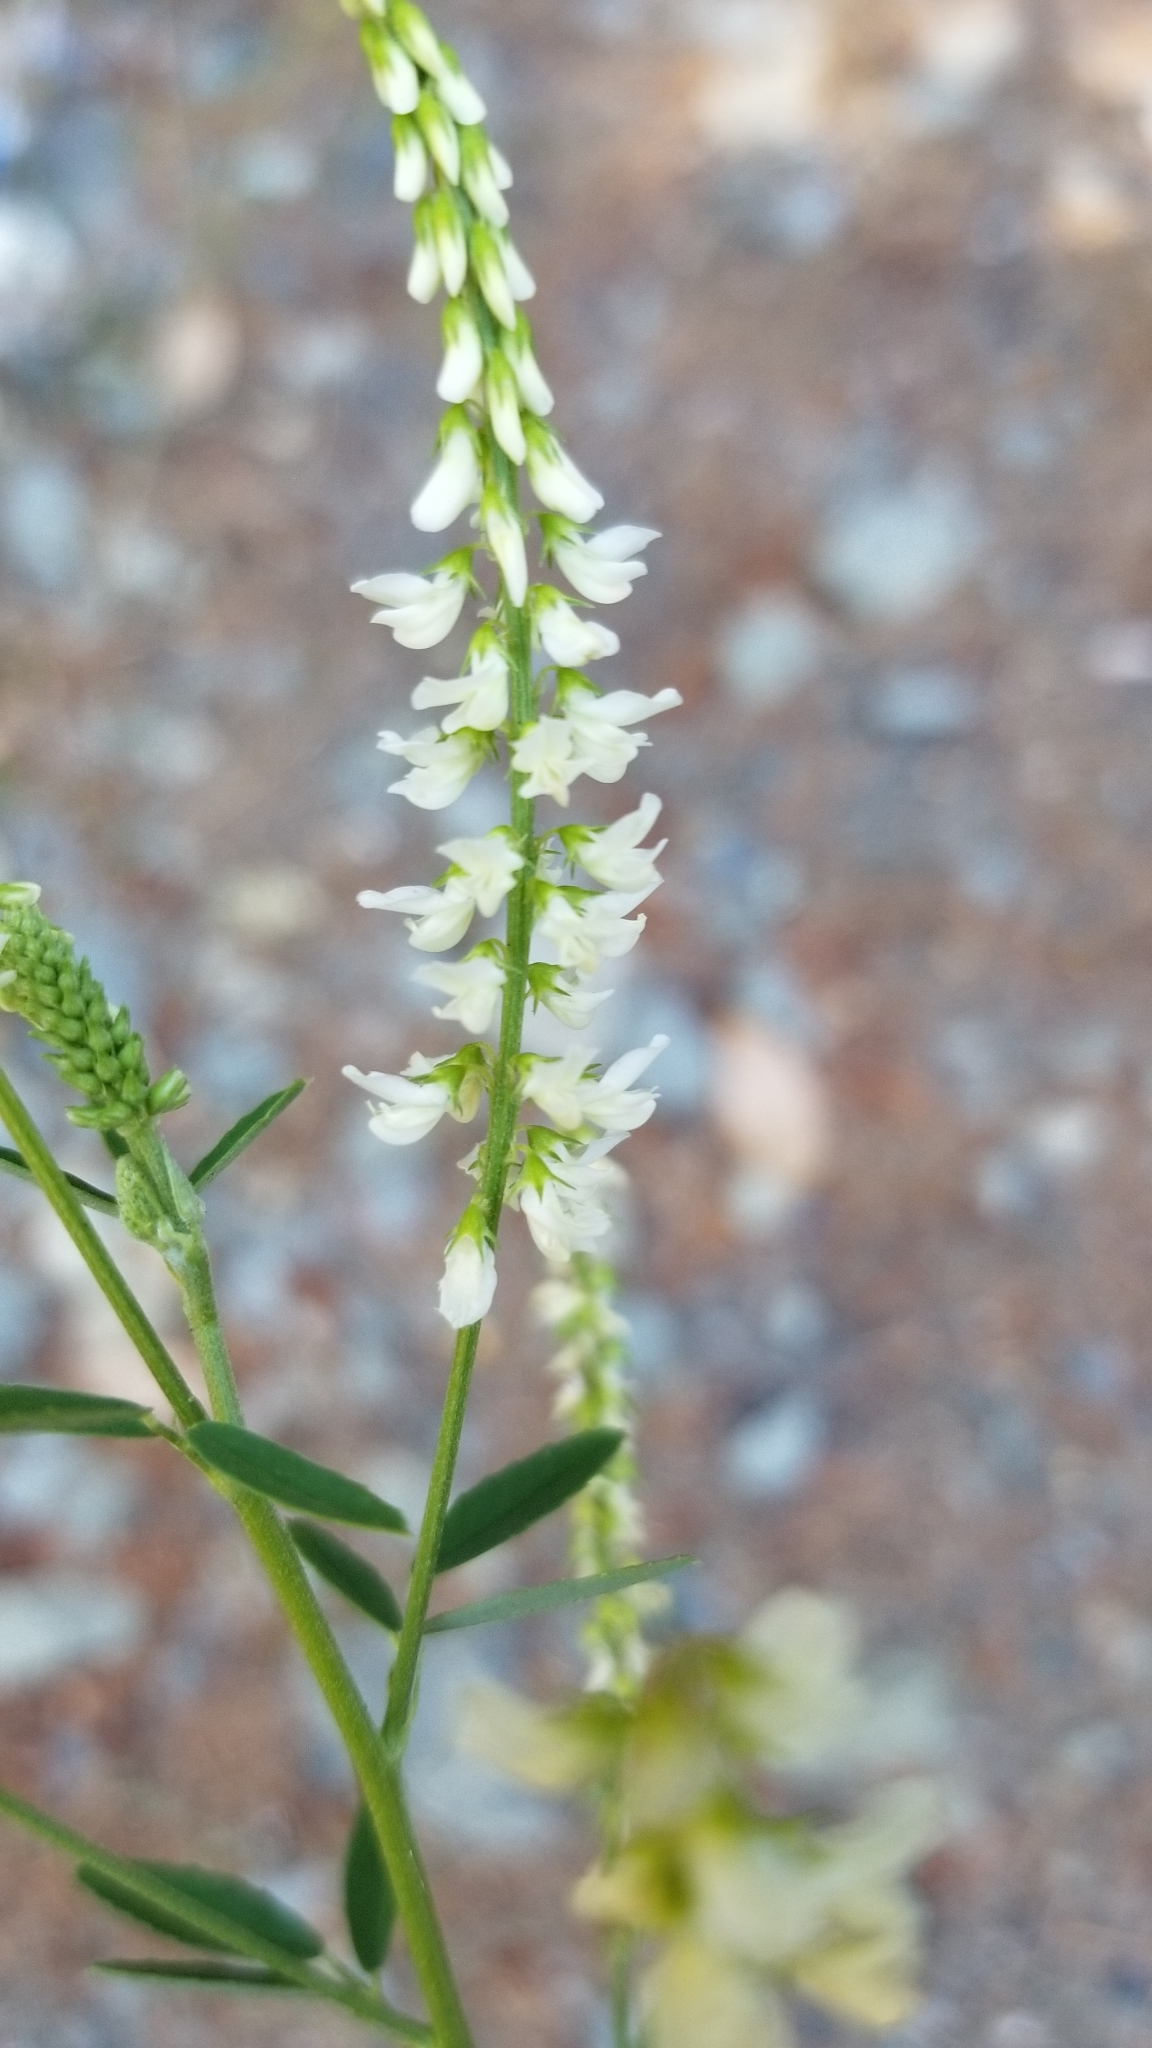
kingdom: Plantae
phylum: Tracheophyta
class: Magnoliopsida
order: Fabales
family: Fabaceae
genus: Melilotus
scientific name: Melilotus albus
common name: White melilot
